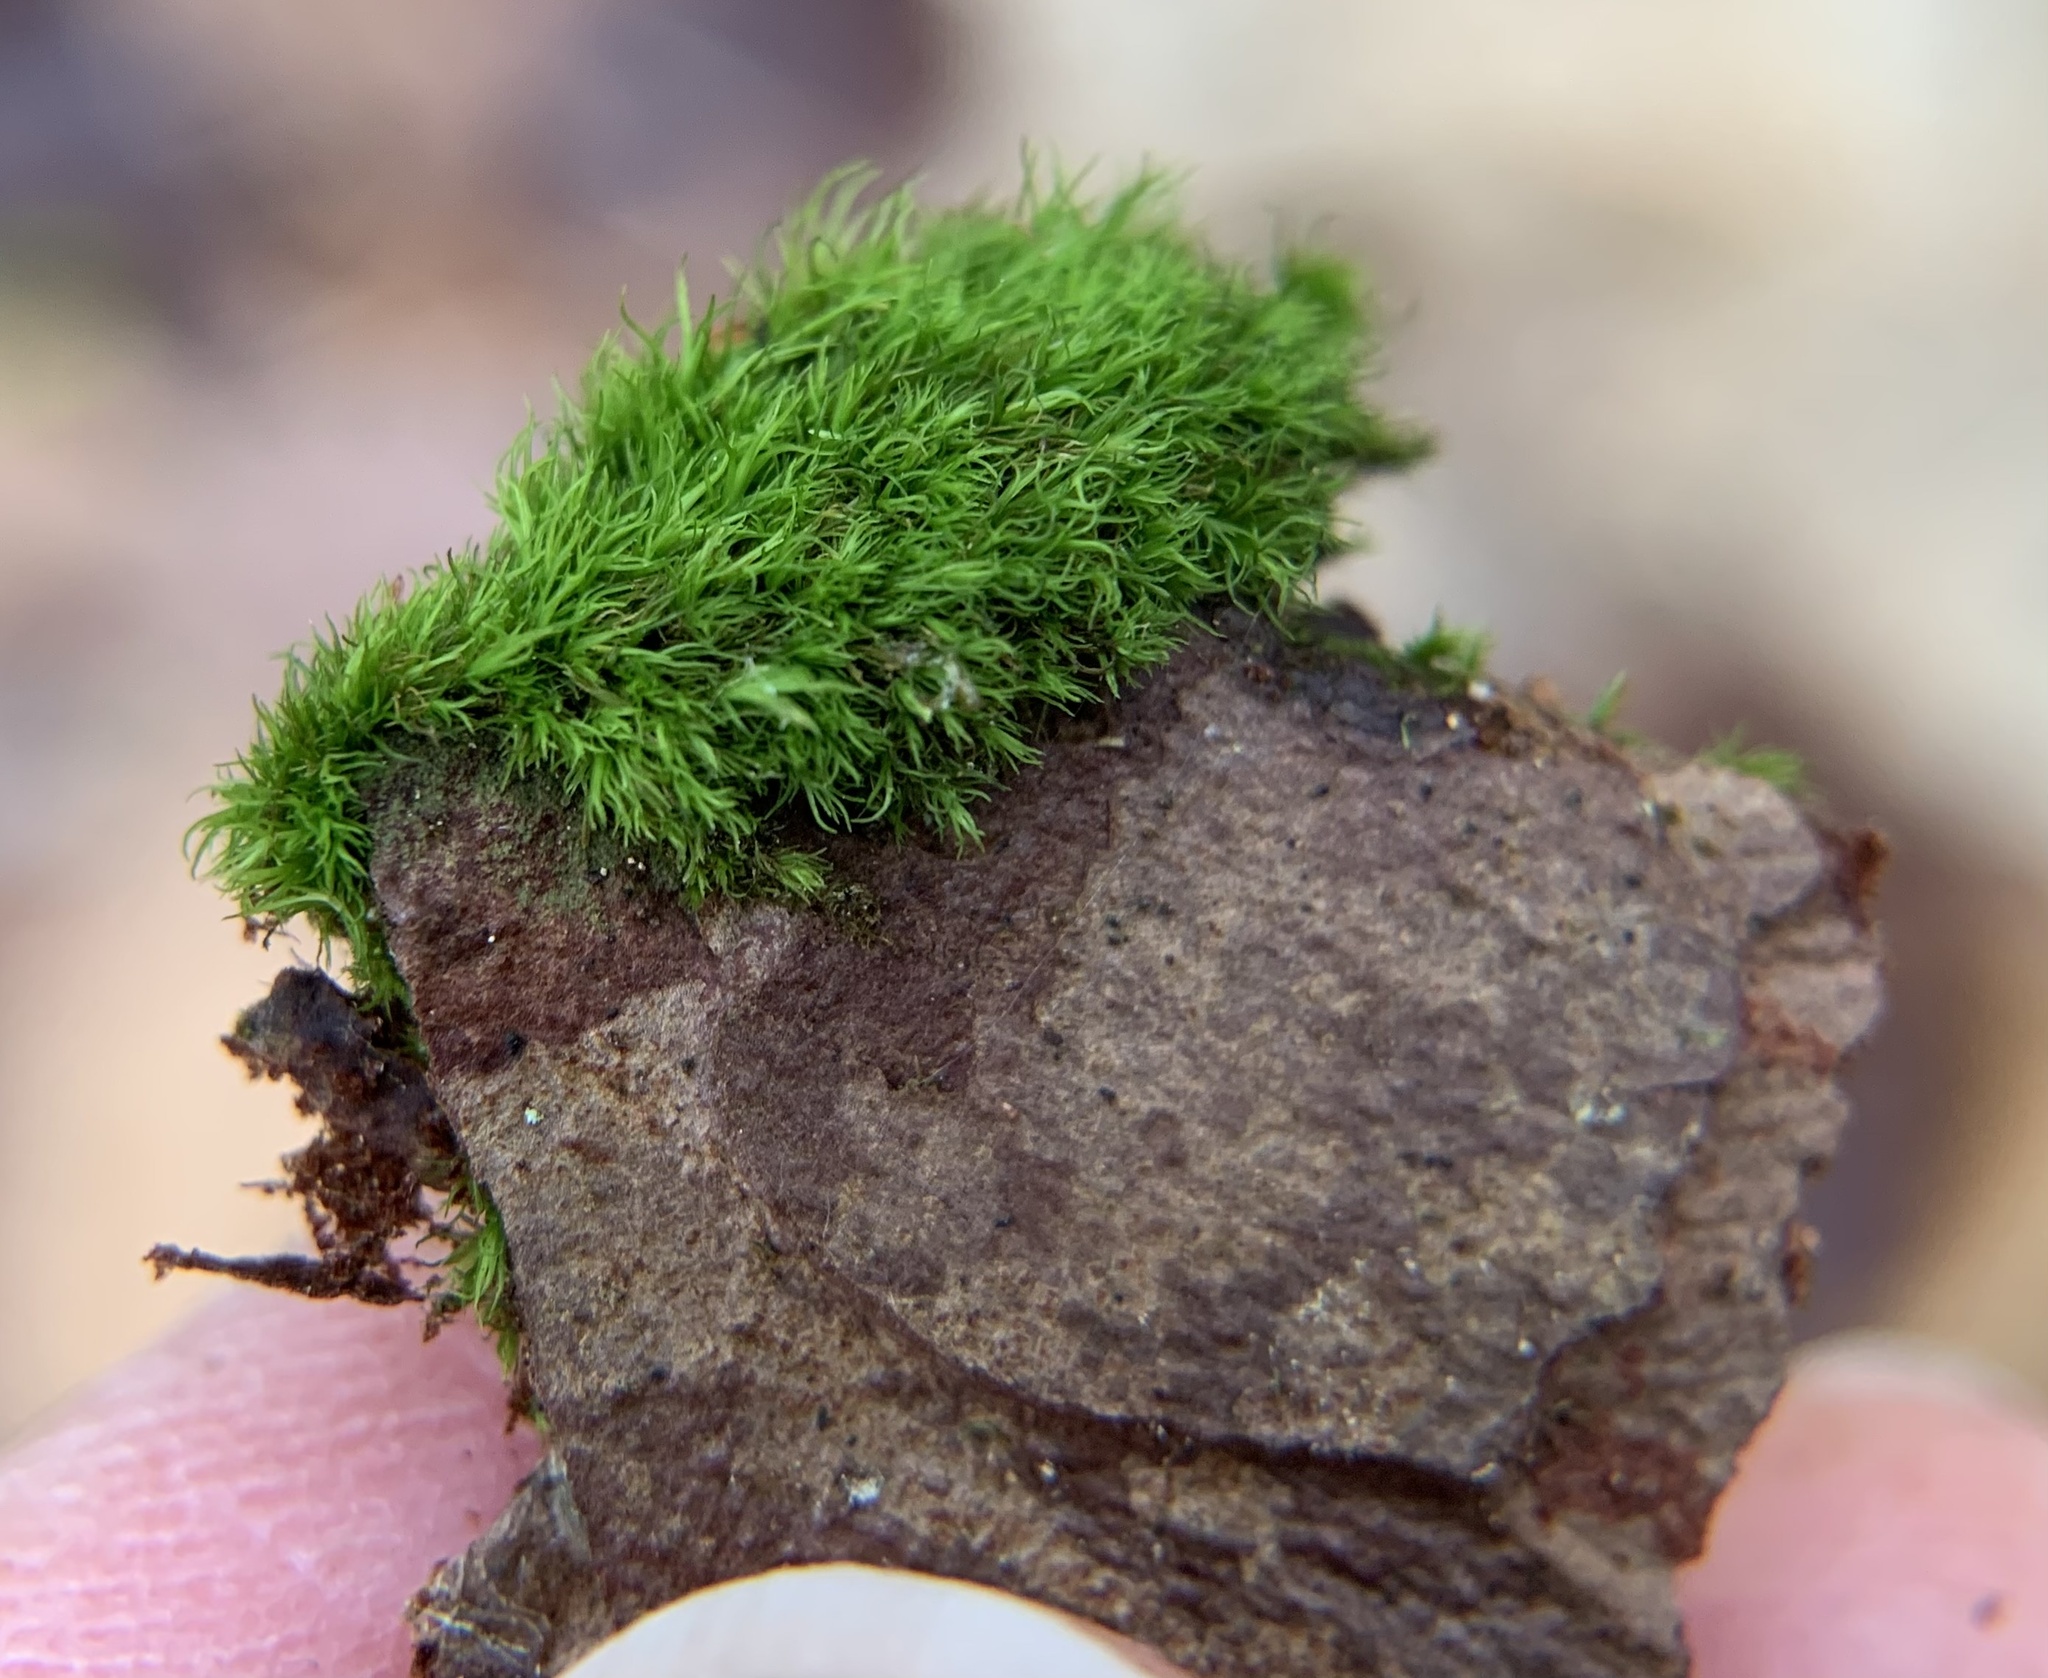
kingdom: Plantae
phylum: Bryophyta
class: Bryopsida
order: Dicranales
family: Dicranaceae
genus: Orthodicranum
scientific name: Orthodicranum montanum
